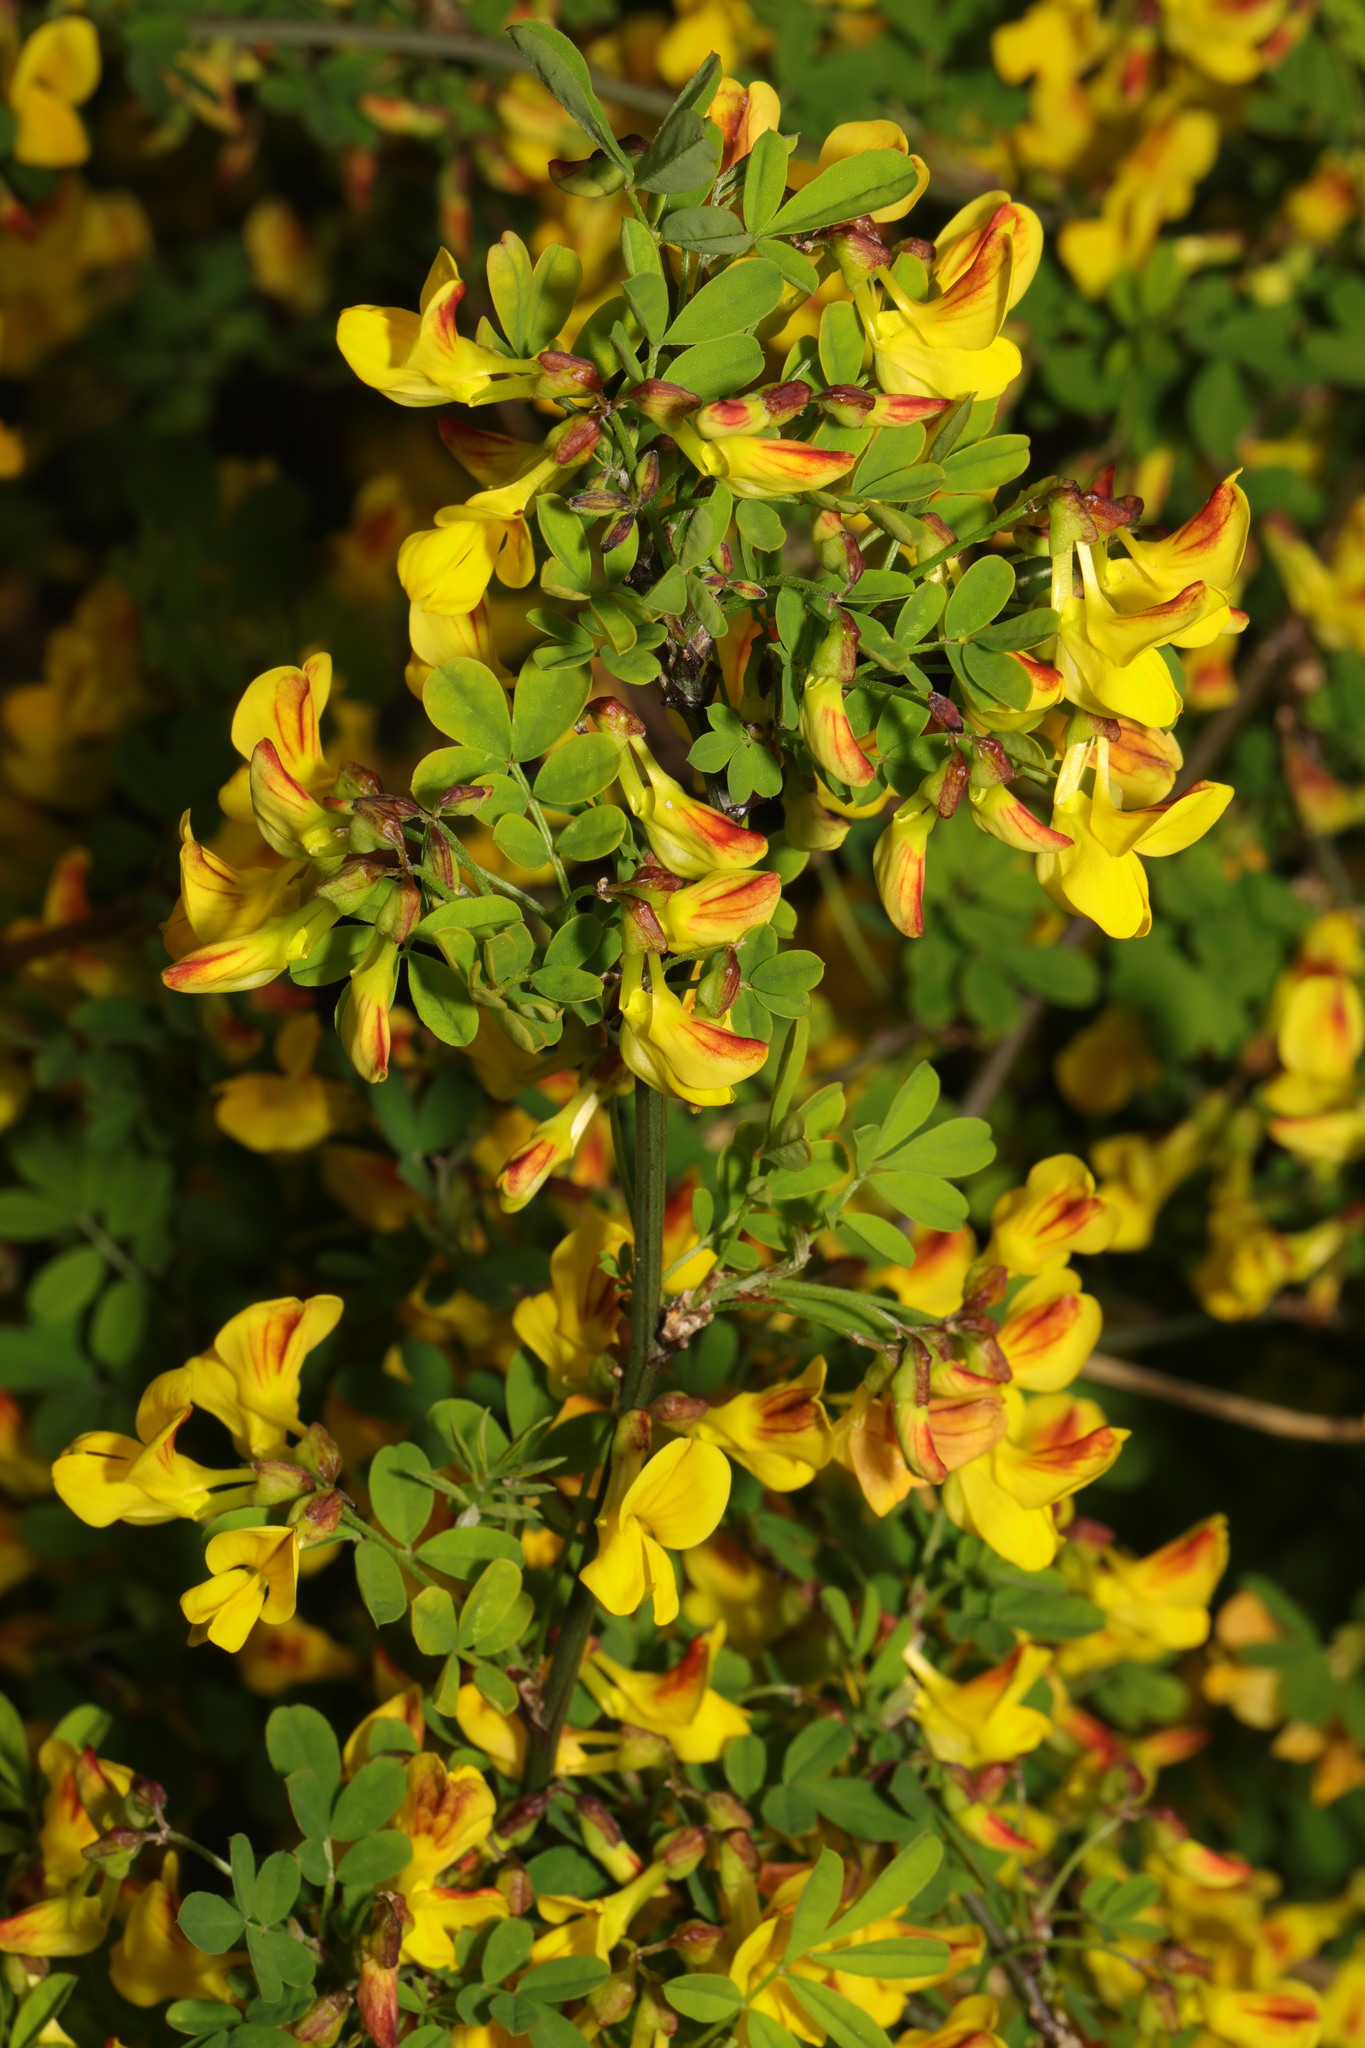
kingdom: Plantae
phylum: Tracheophyta
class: Magnoliopsida
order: Fabales
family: Fabaceae
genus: Hippocrepis
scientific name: Hippocrepis emerus
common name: Scorpion senna
